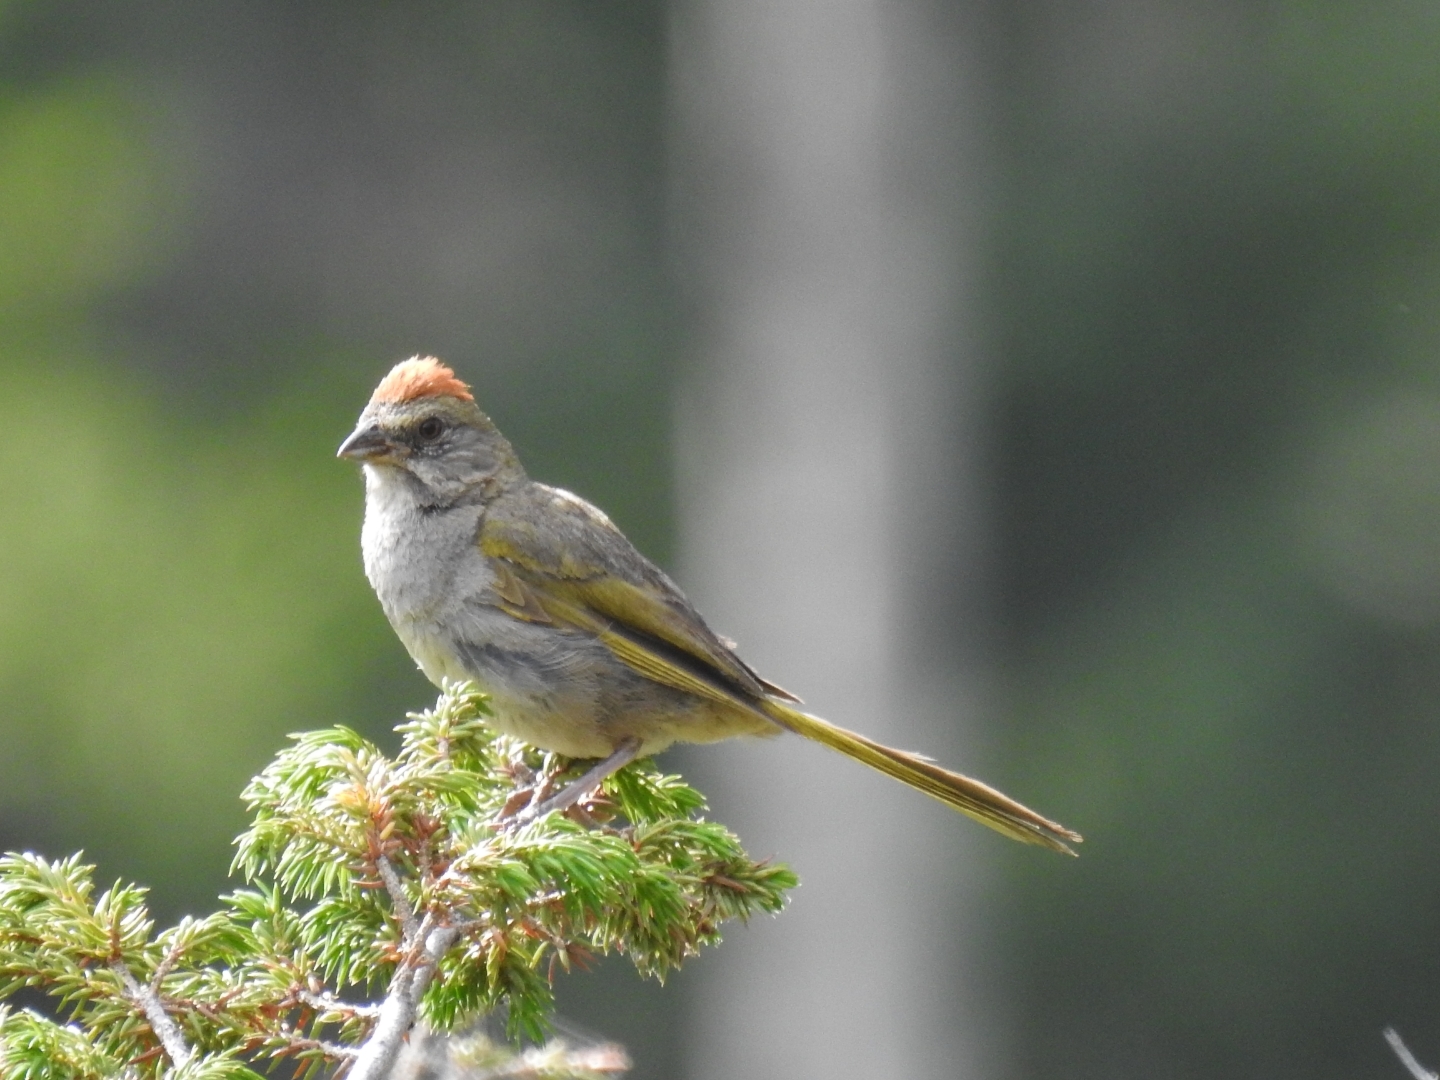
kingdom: Animalia
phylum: Chordata
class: Aves
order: Passeriformes
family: Passerellidae
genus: Pipilo
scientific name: Pipilo chlorurus
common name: Green-tailed towhee
